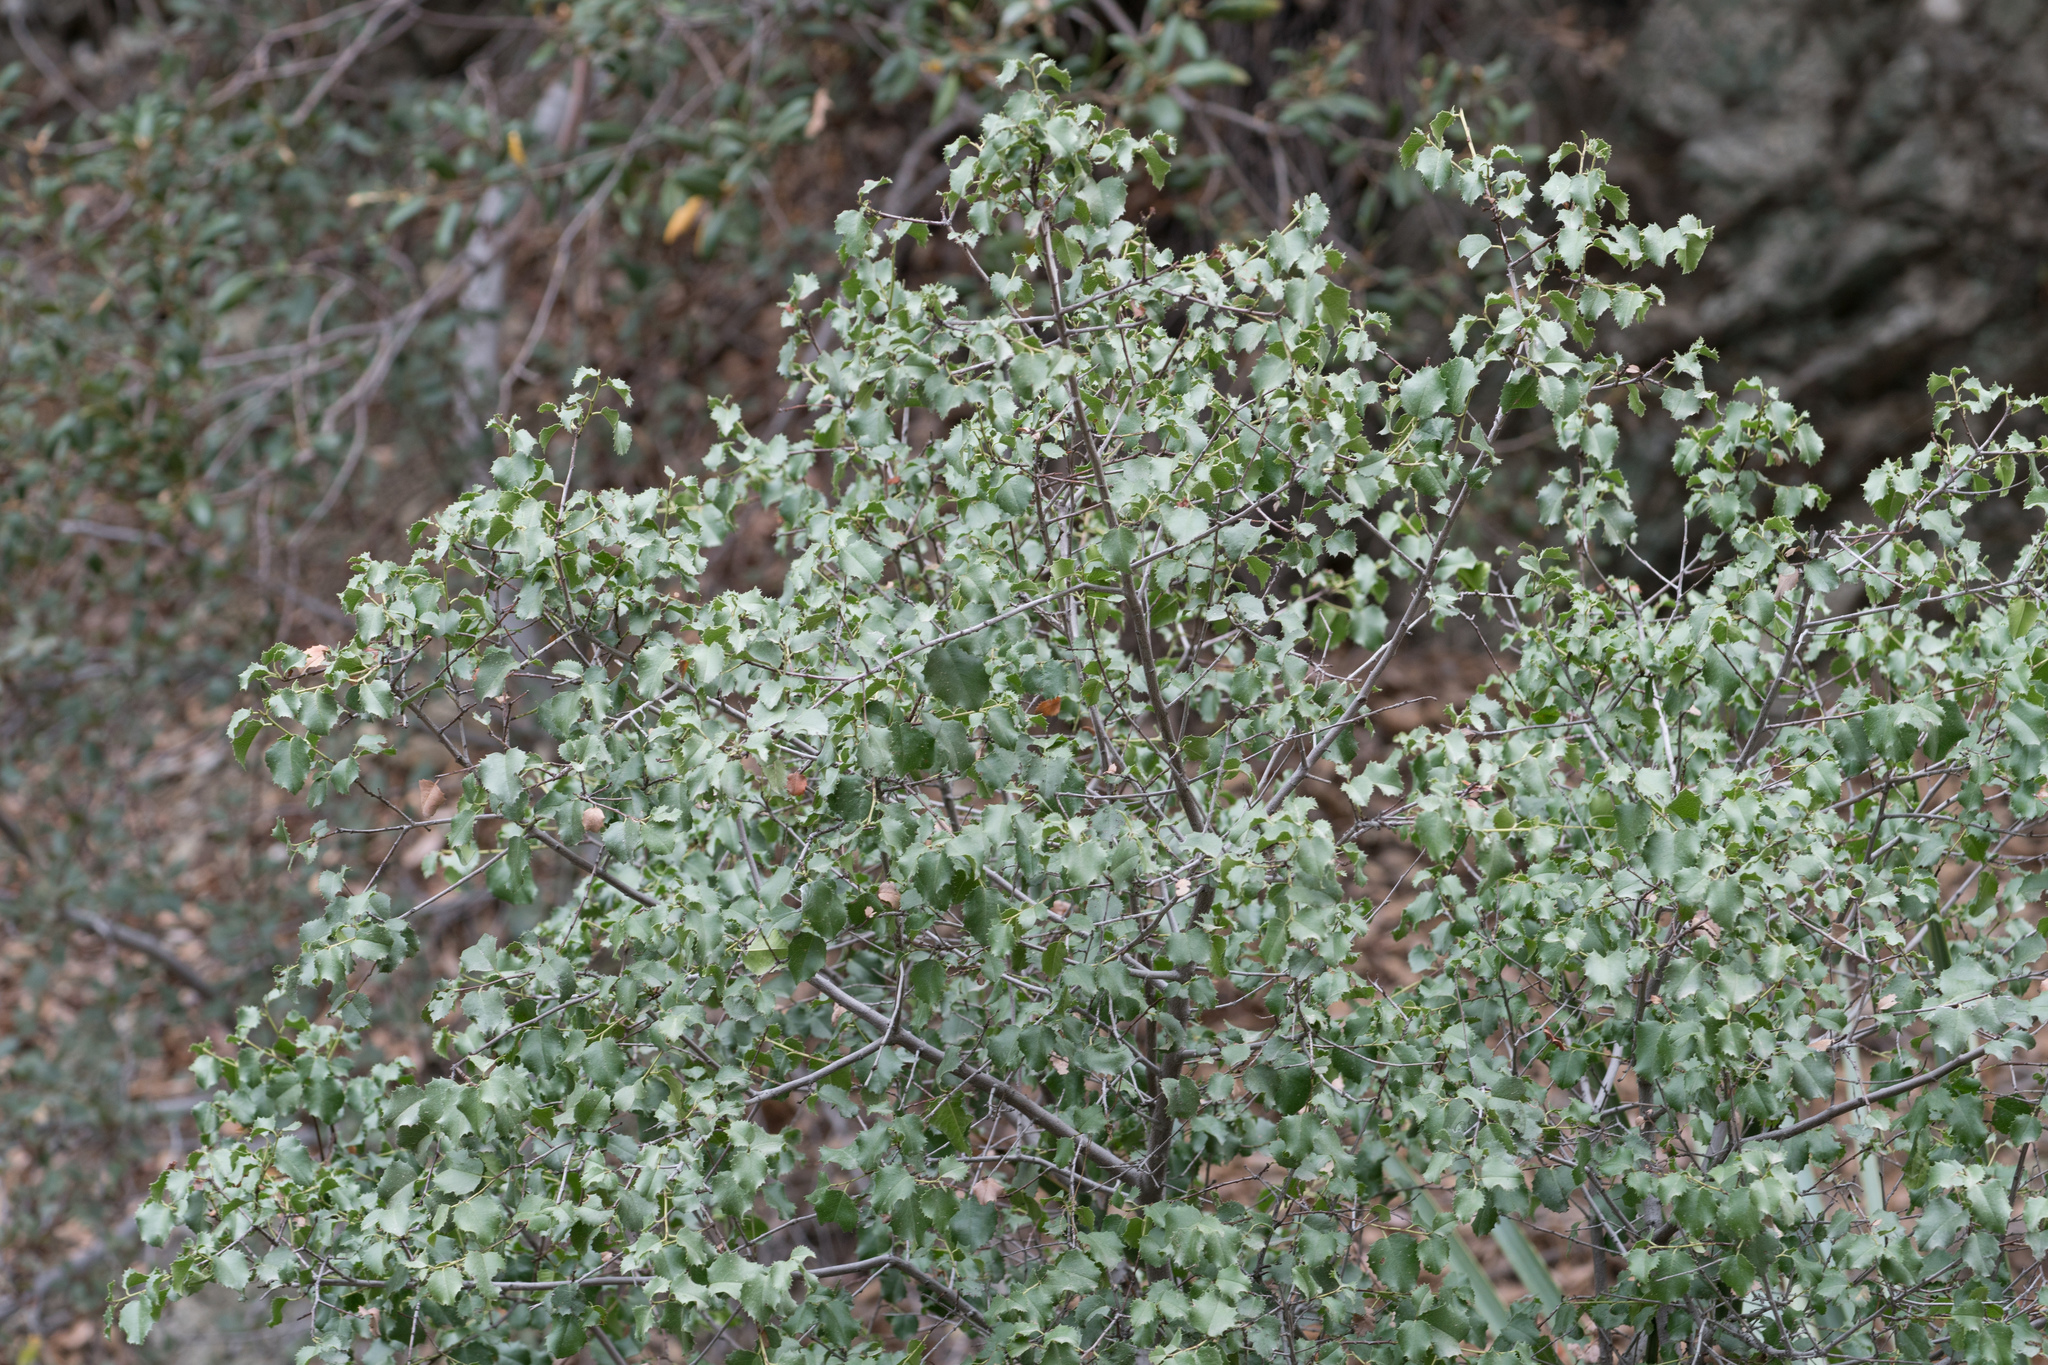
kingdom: Plantae
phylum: Tracheophyta
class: Magnoliopsida
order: Rosales
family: Rosaceae
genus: Prunus
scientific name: Prunus ilicifolia
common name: Hollyleaf cherry
